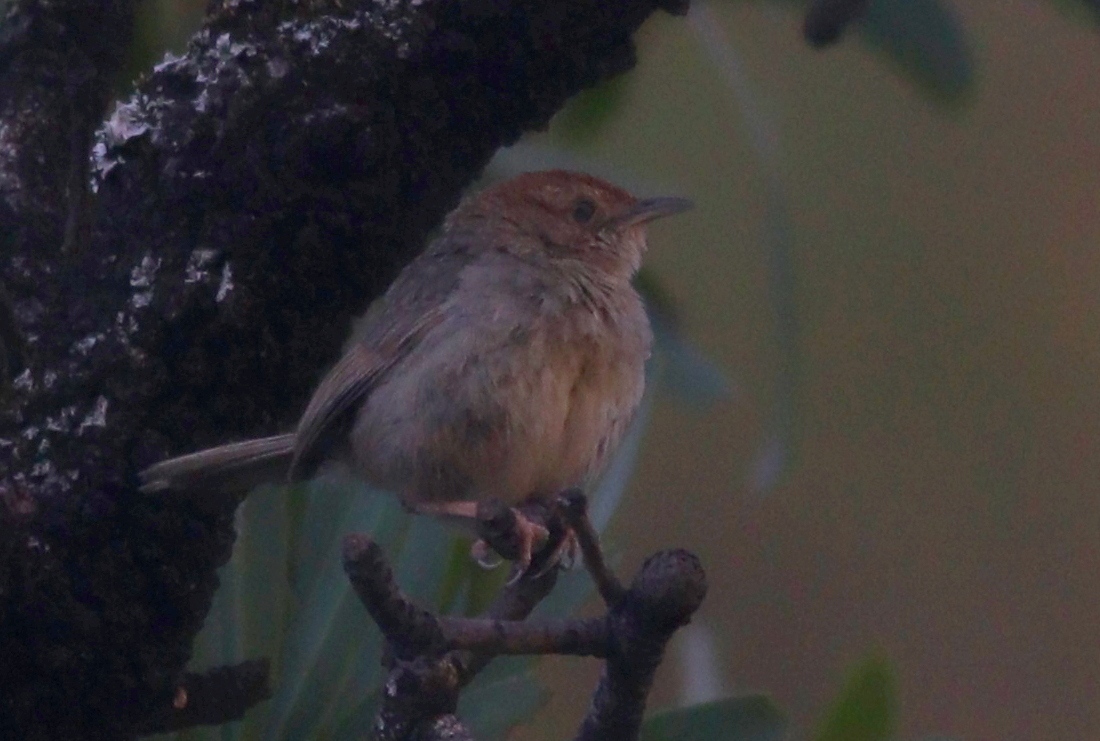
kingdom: Animalia
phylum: Chordata
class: Aves
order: Passeriformes
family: Cisticolidae
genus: Cisticola
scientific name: Cisticola lais
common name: Wailing cisticola
